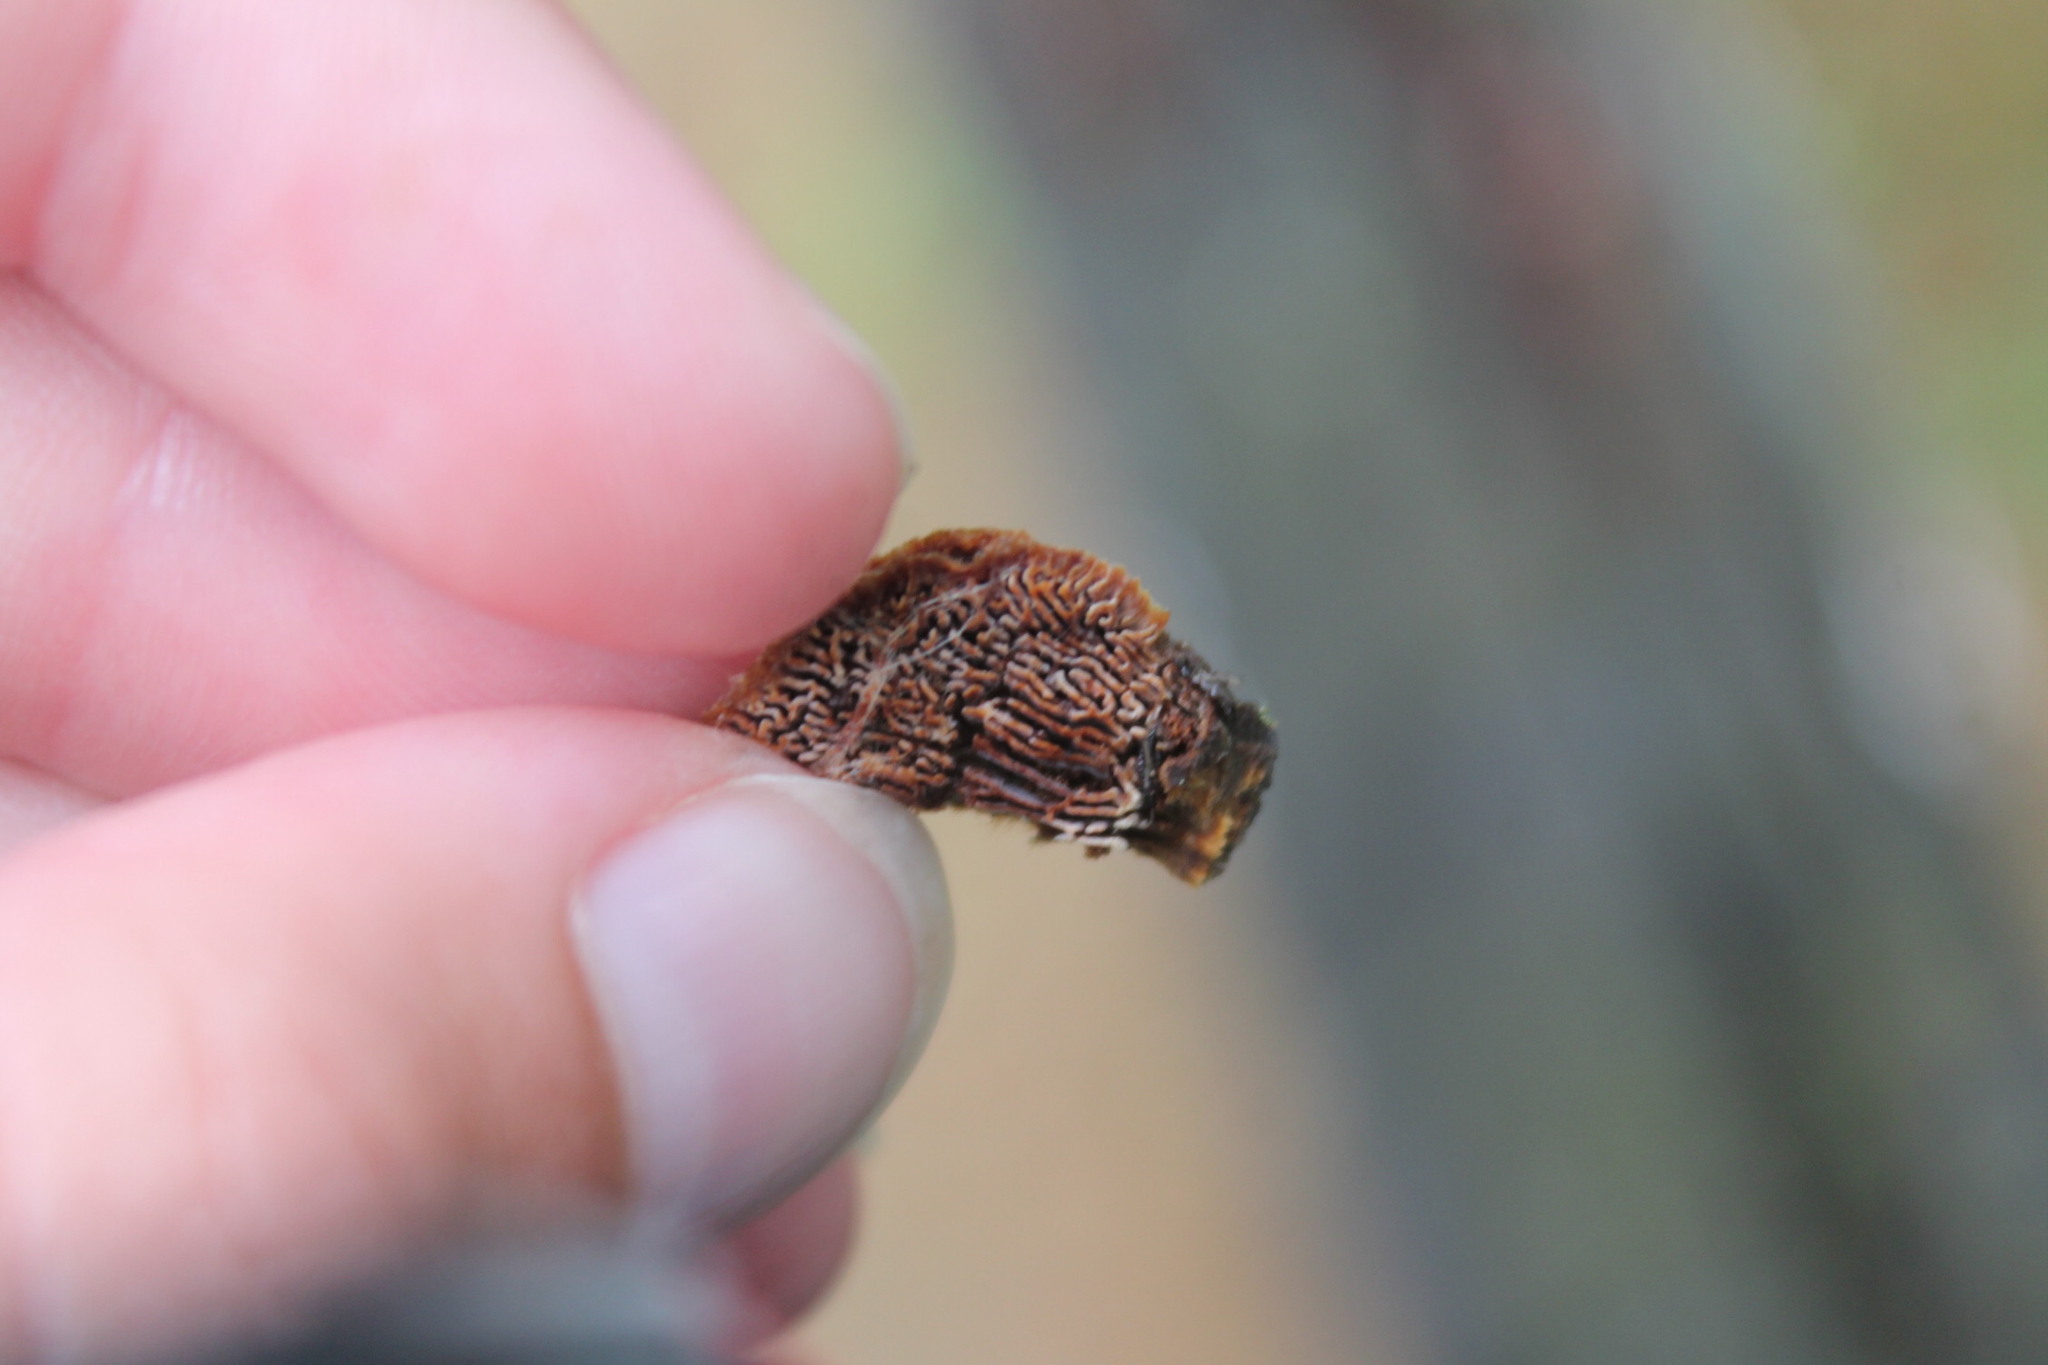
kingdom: Fungi
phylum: Basidiomycota
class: Agaricomycetes
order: Gloeophyllales
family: Gloeophyllaceae
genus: Gloeophyllum
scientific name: Gloeophyllum sepiarium
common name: Conifer mazegill
